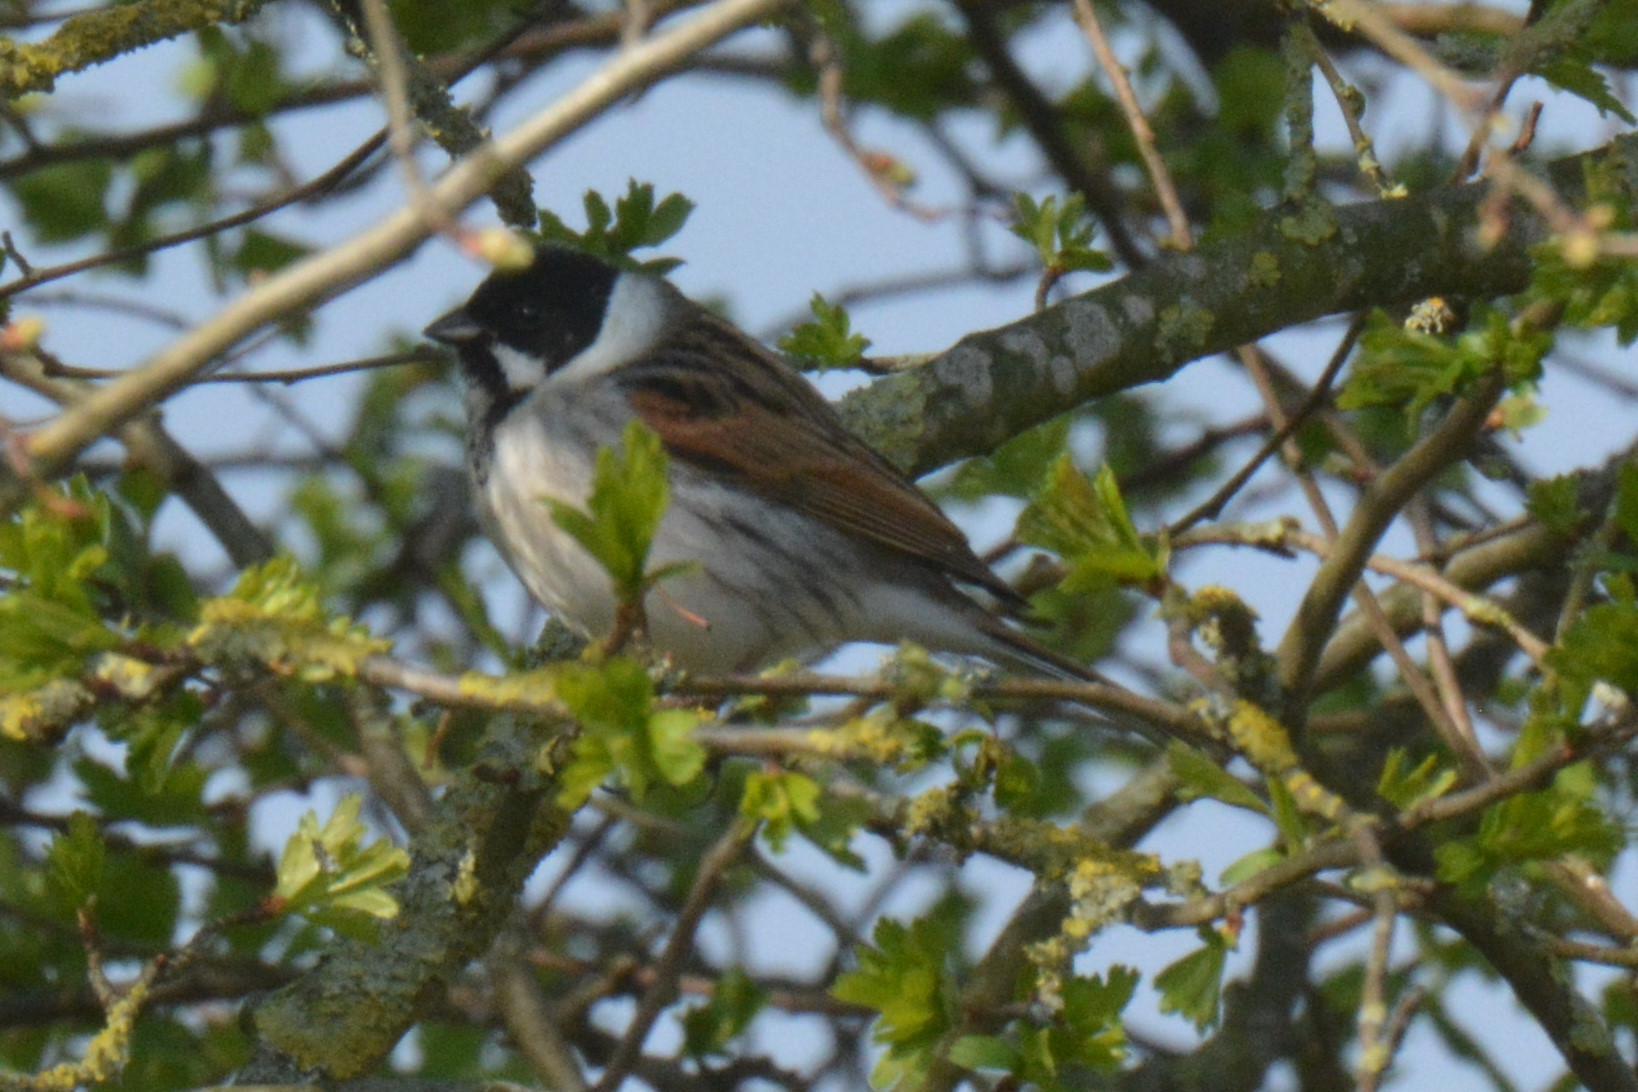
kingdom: Animalia
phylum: Chordata
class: Aves
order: Passeriformes
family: Emberizidae
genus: Emberiza
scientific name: Emberiza schoeniclus
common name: Reed bunting
